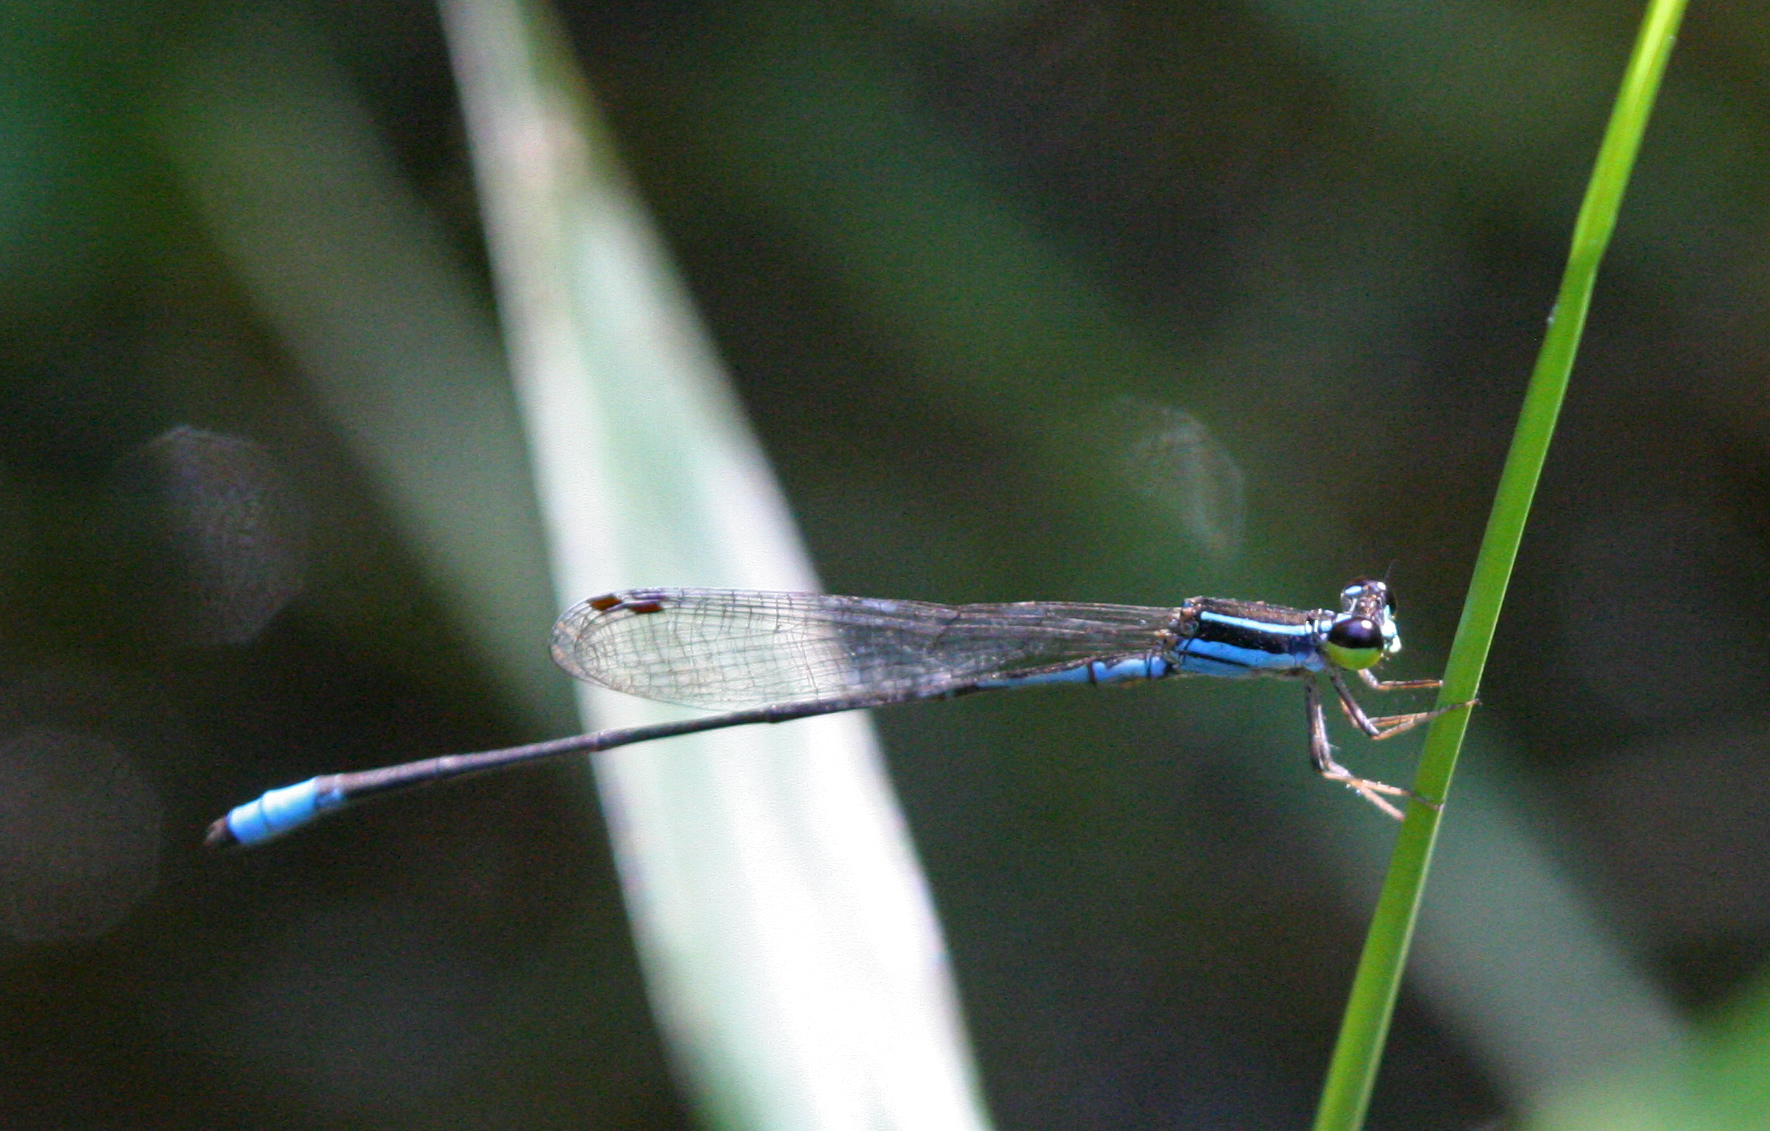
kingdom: Animalia
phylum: Arthropoda
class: Insecta
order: Odonata
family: Coenagrionidae
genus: Argiocnemis
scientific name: Argiocnemis rubescens
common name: Red-tipped shadefly
